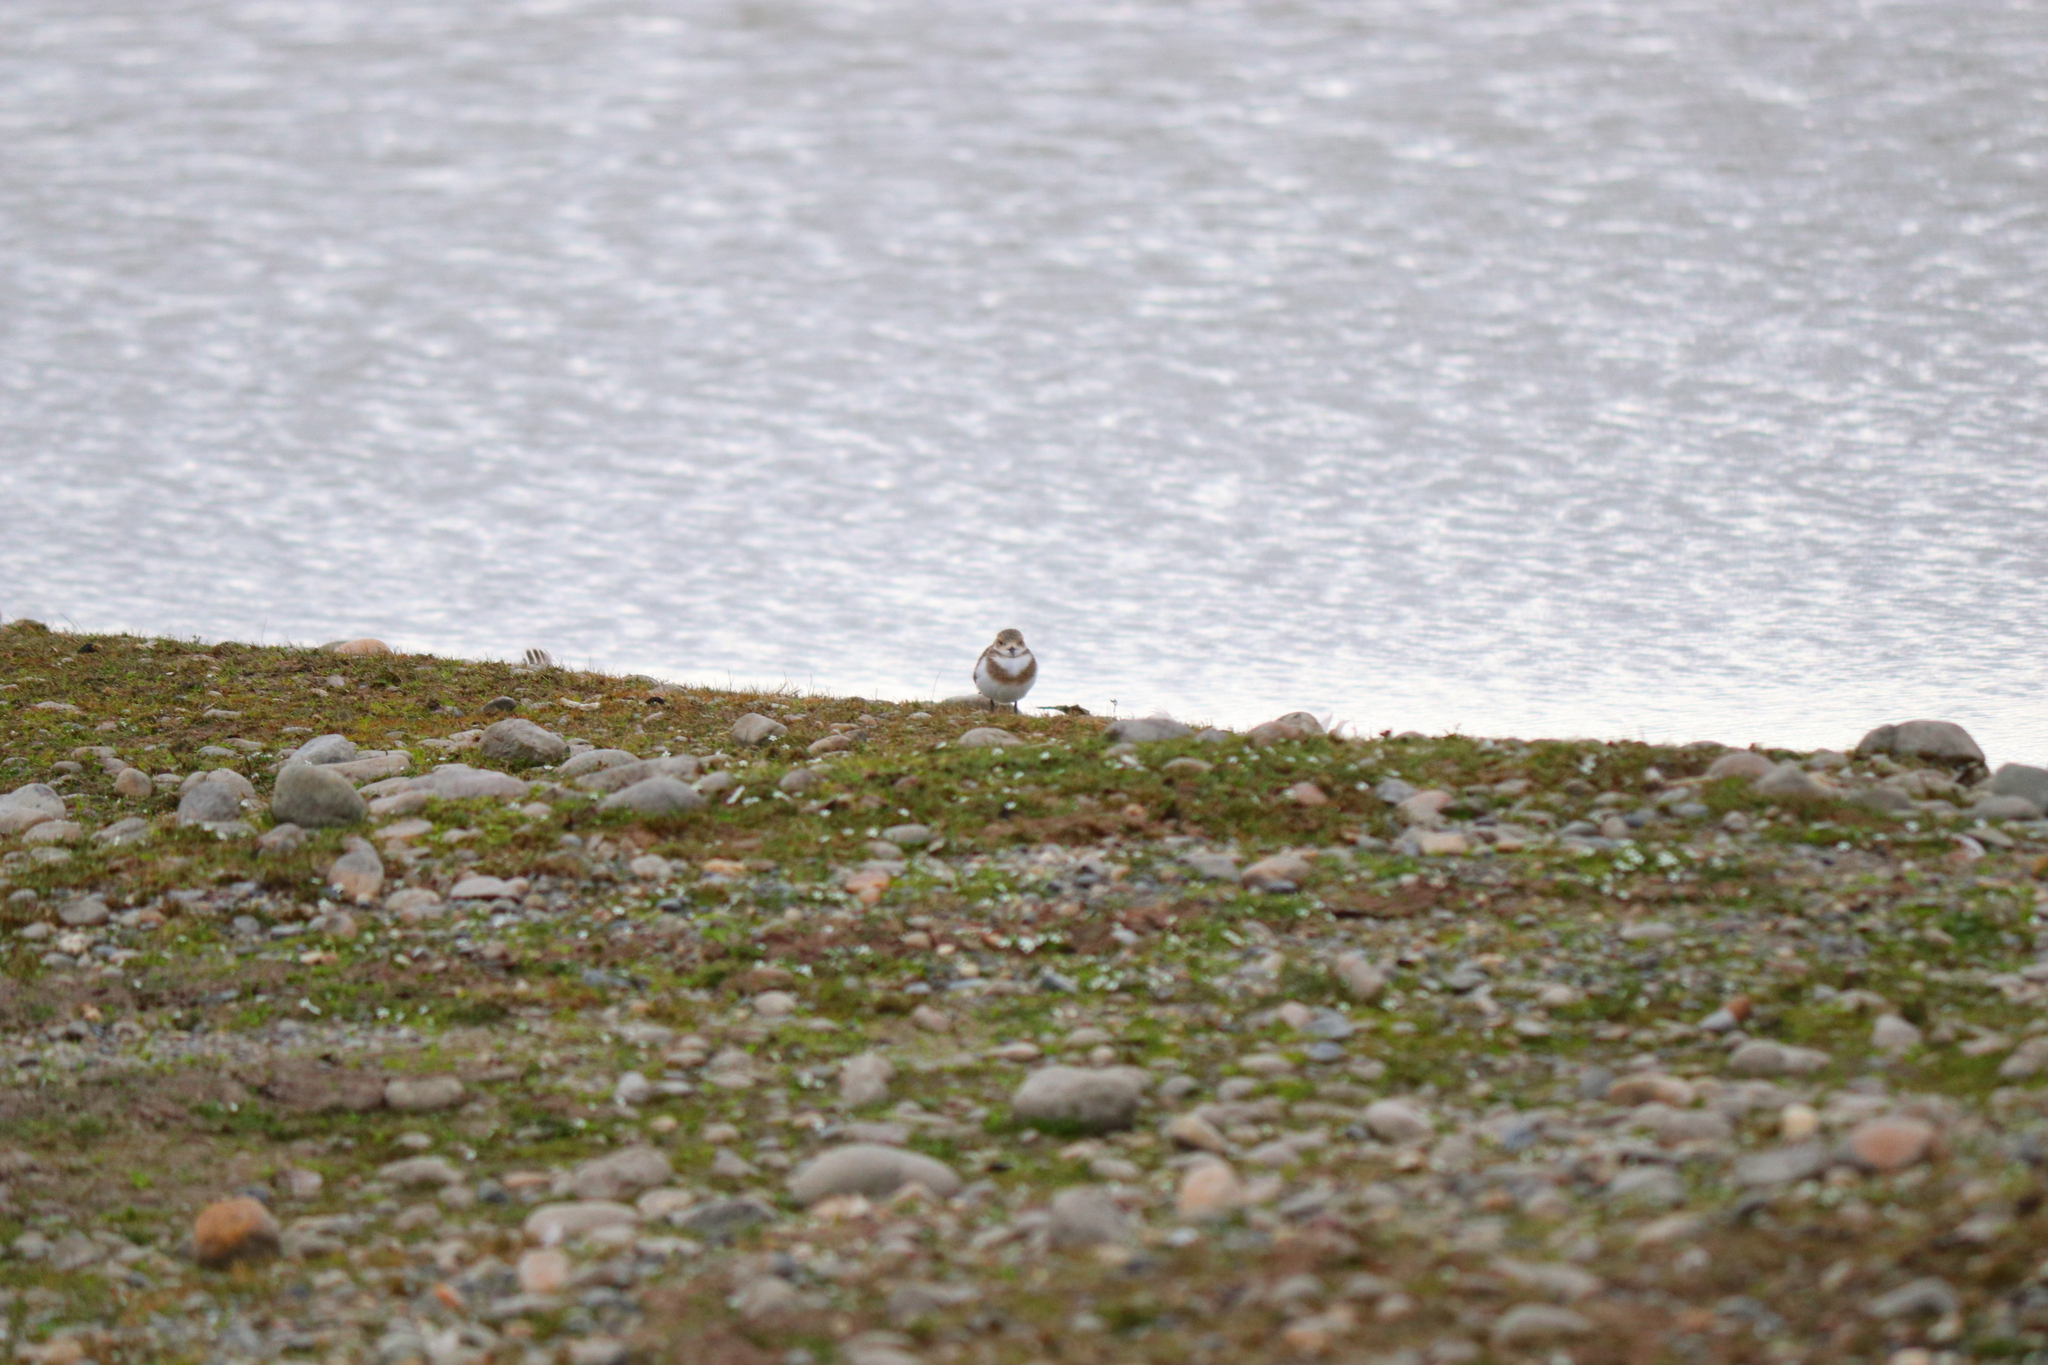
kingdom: Animalia
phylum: Chordata
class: Aves
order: Charadriiformes
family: Charadriidae
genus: Anarhynchus
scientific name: Anarhynchus
